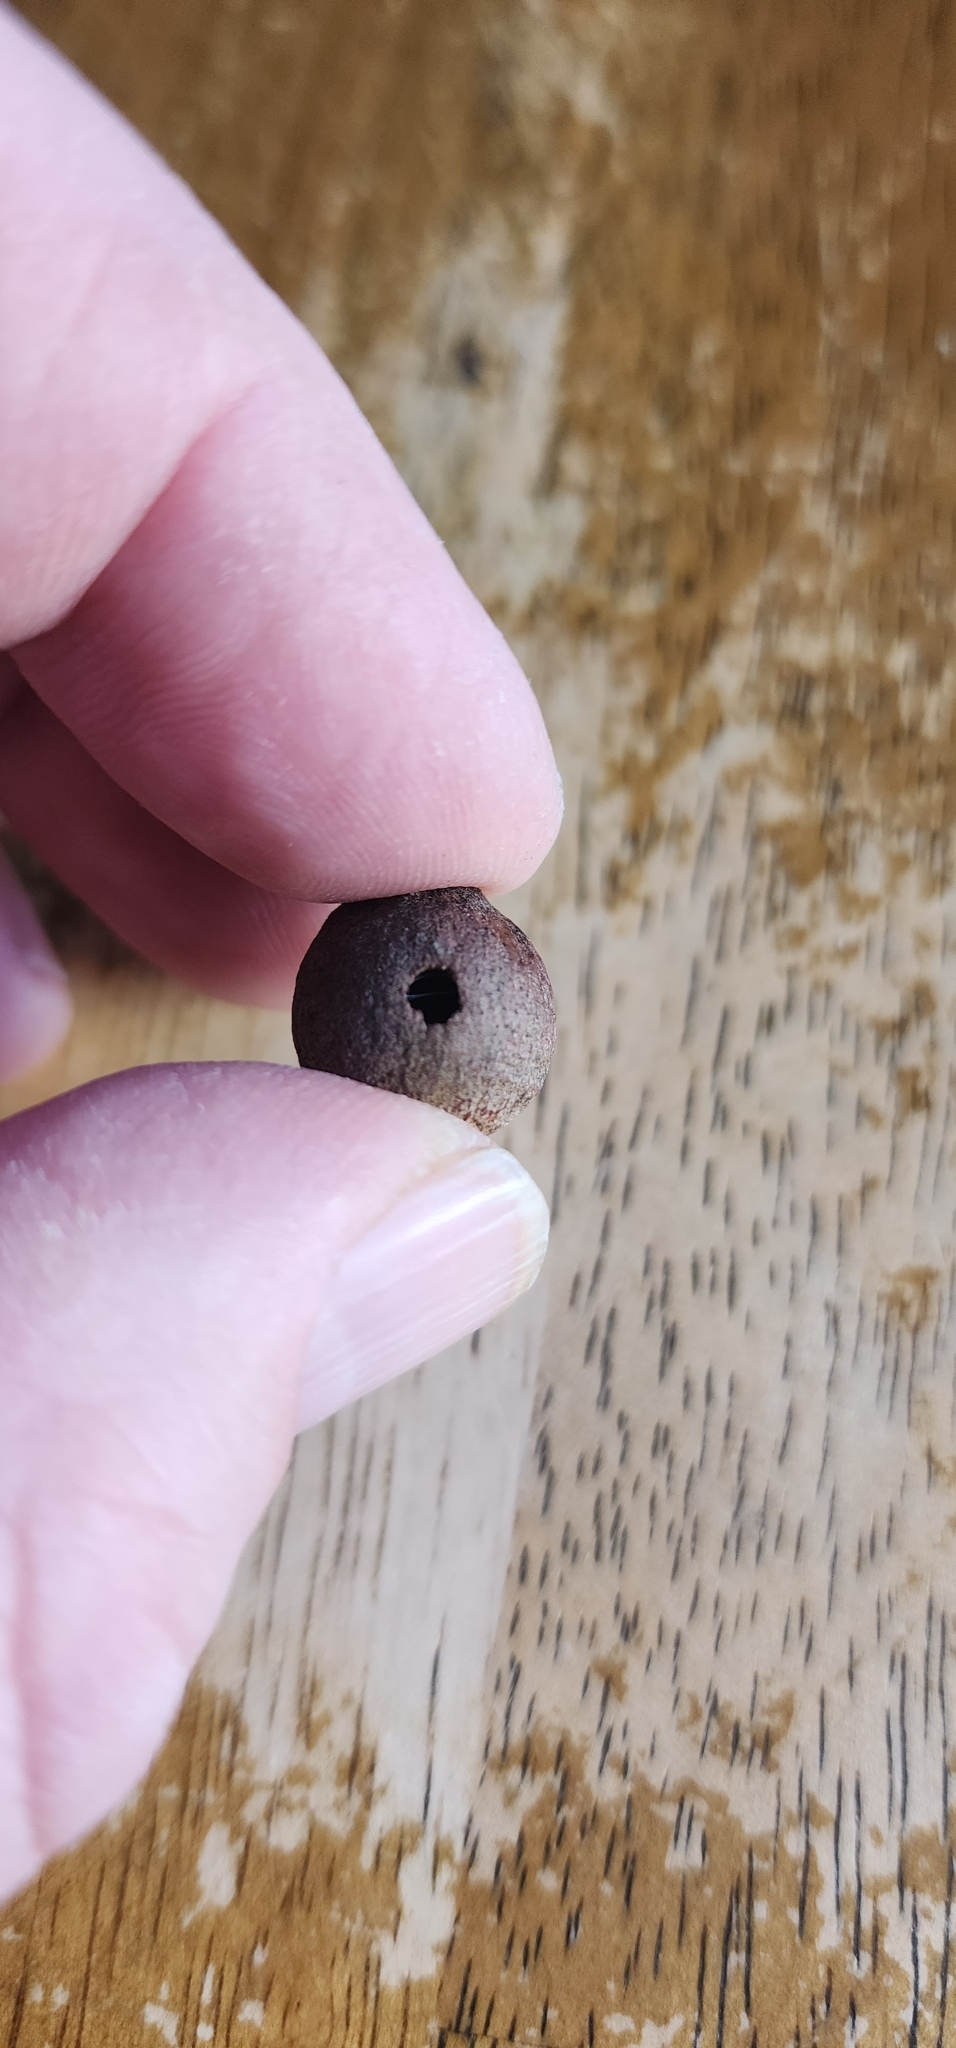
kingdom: Animalia
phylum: Arthropoda
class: Insecta
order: Hymenoptera
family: Cynipidae
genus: Disholcaspis
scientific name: Disholcaspis
